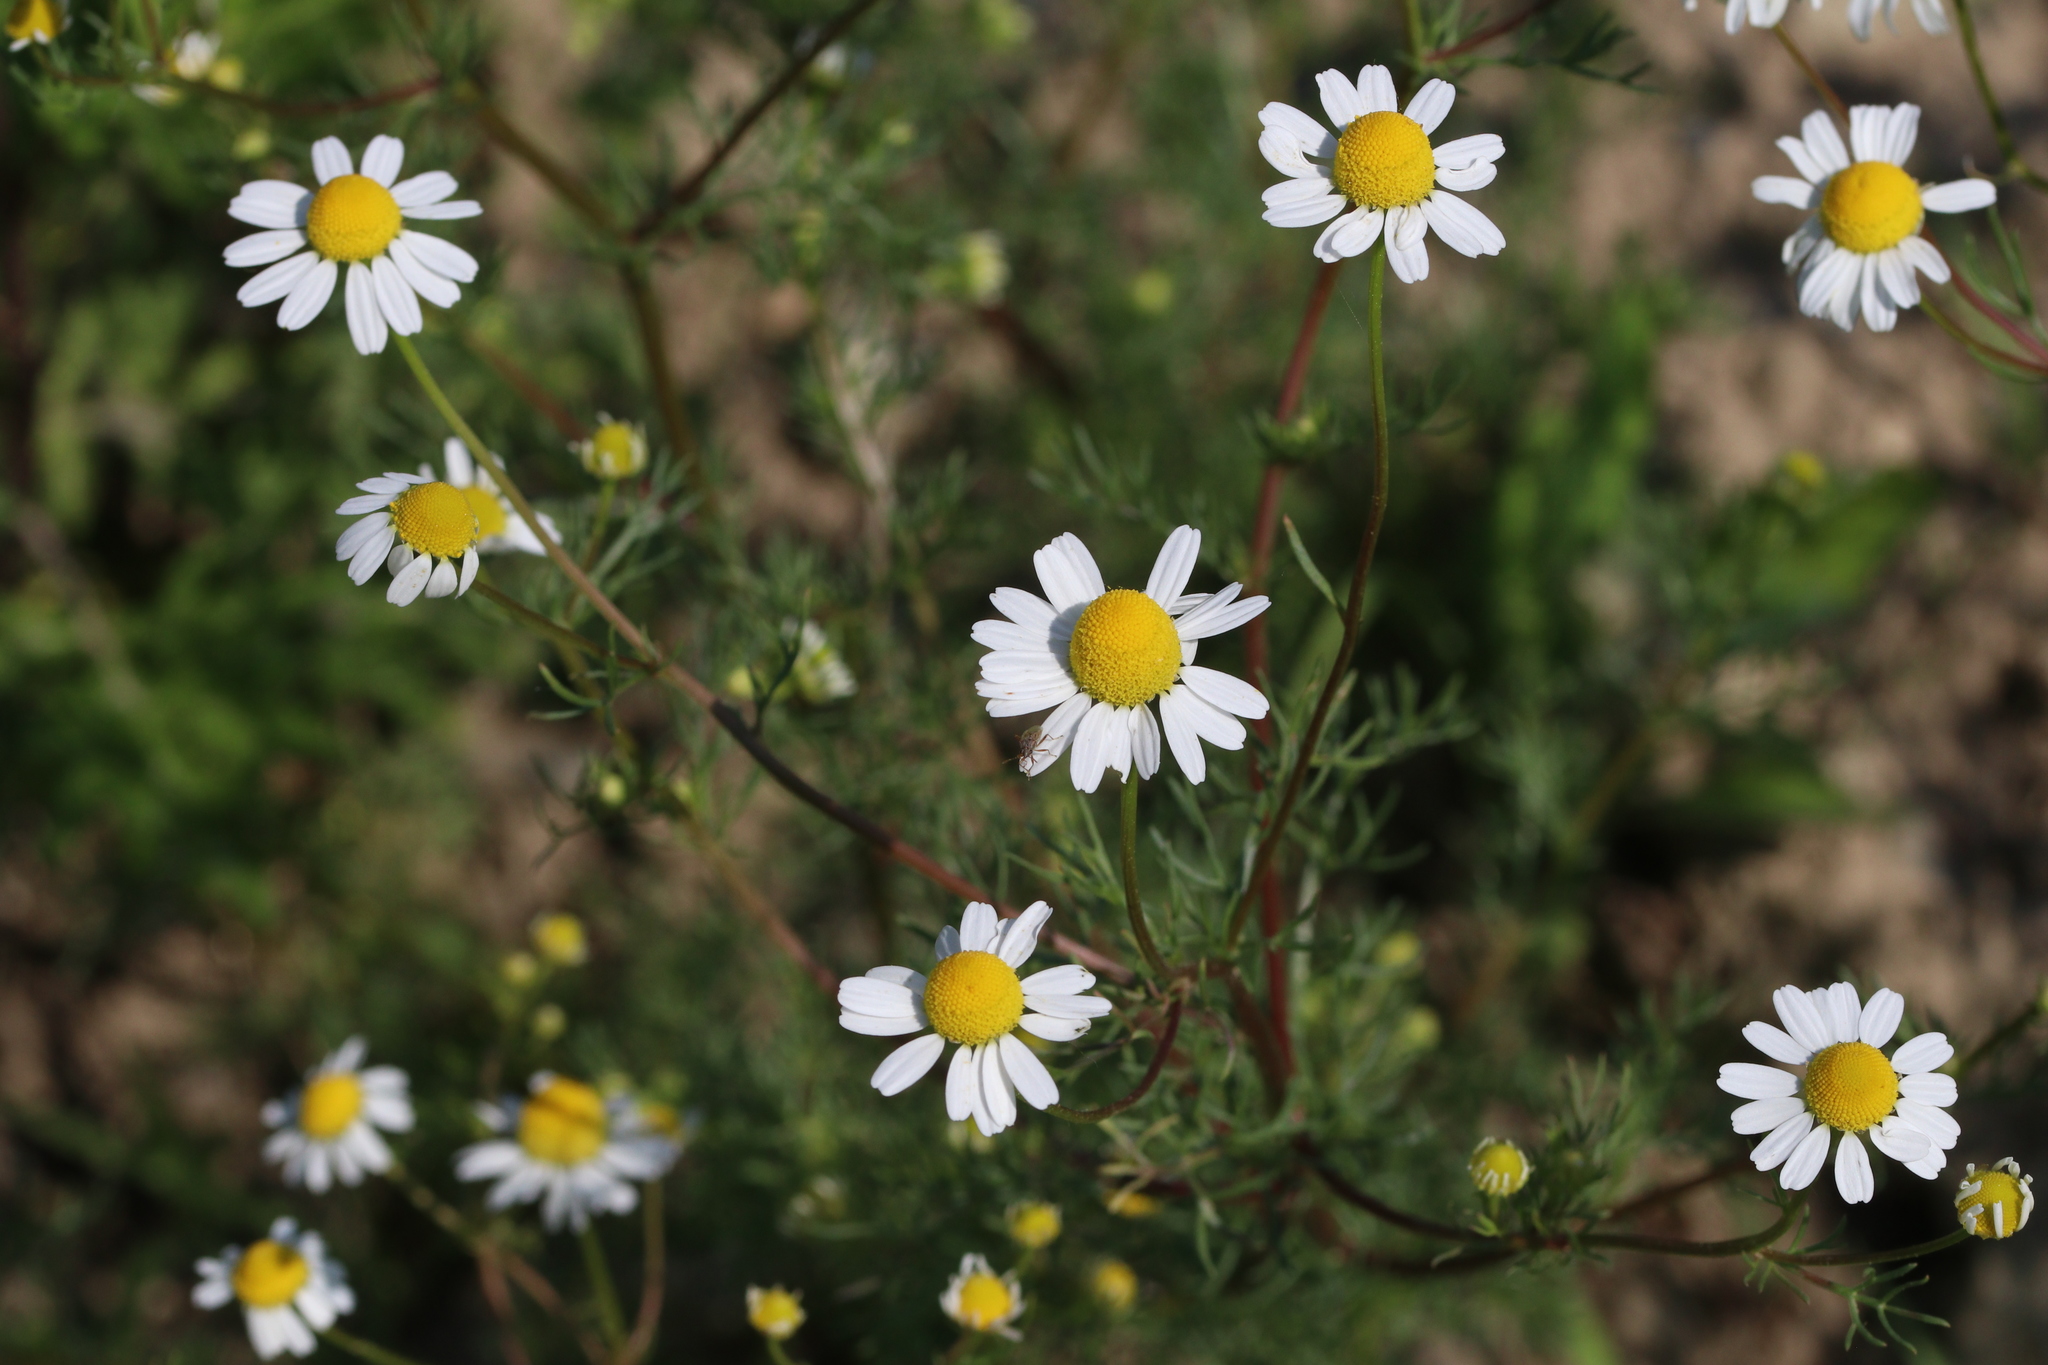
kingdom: Plantae
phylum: Tracheophyta
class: Magnoliopsida
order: Asterales
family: Asteraceae
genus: Matricaria
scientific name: Matricaria chamomilla
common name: Scented mayweed
